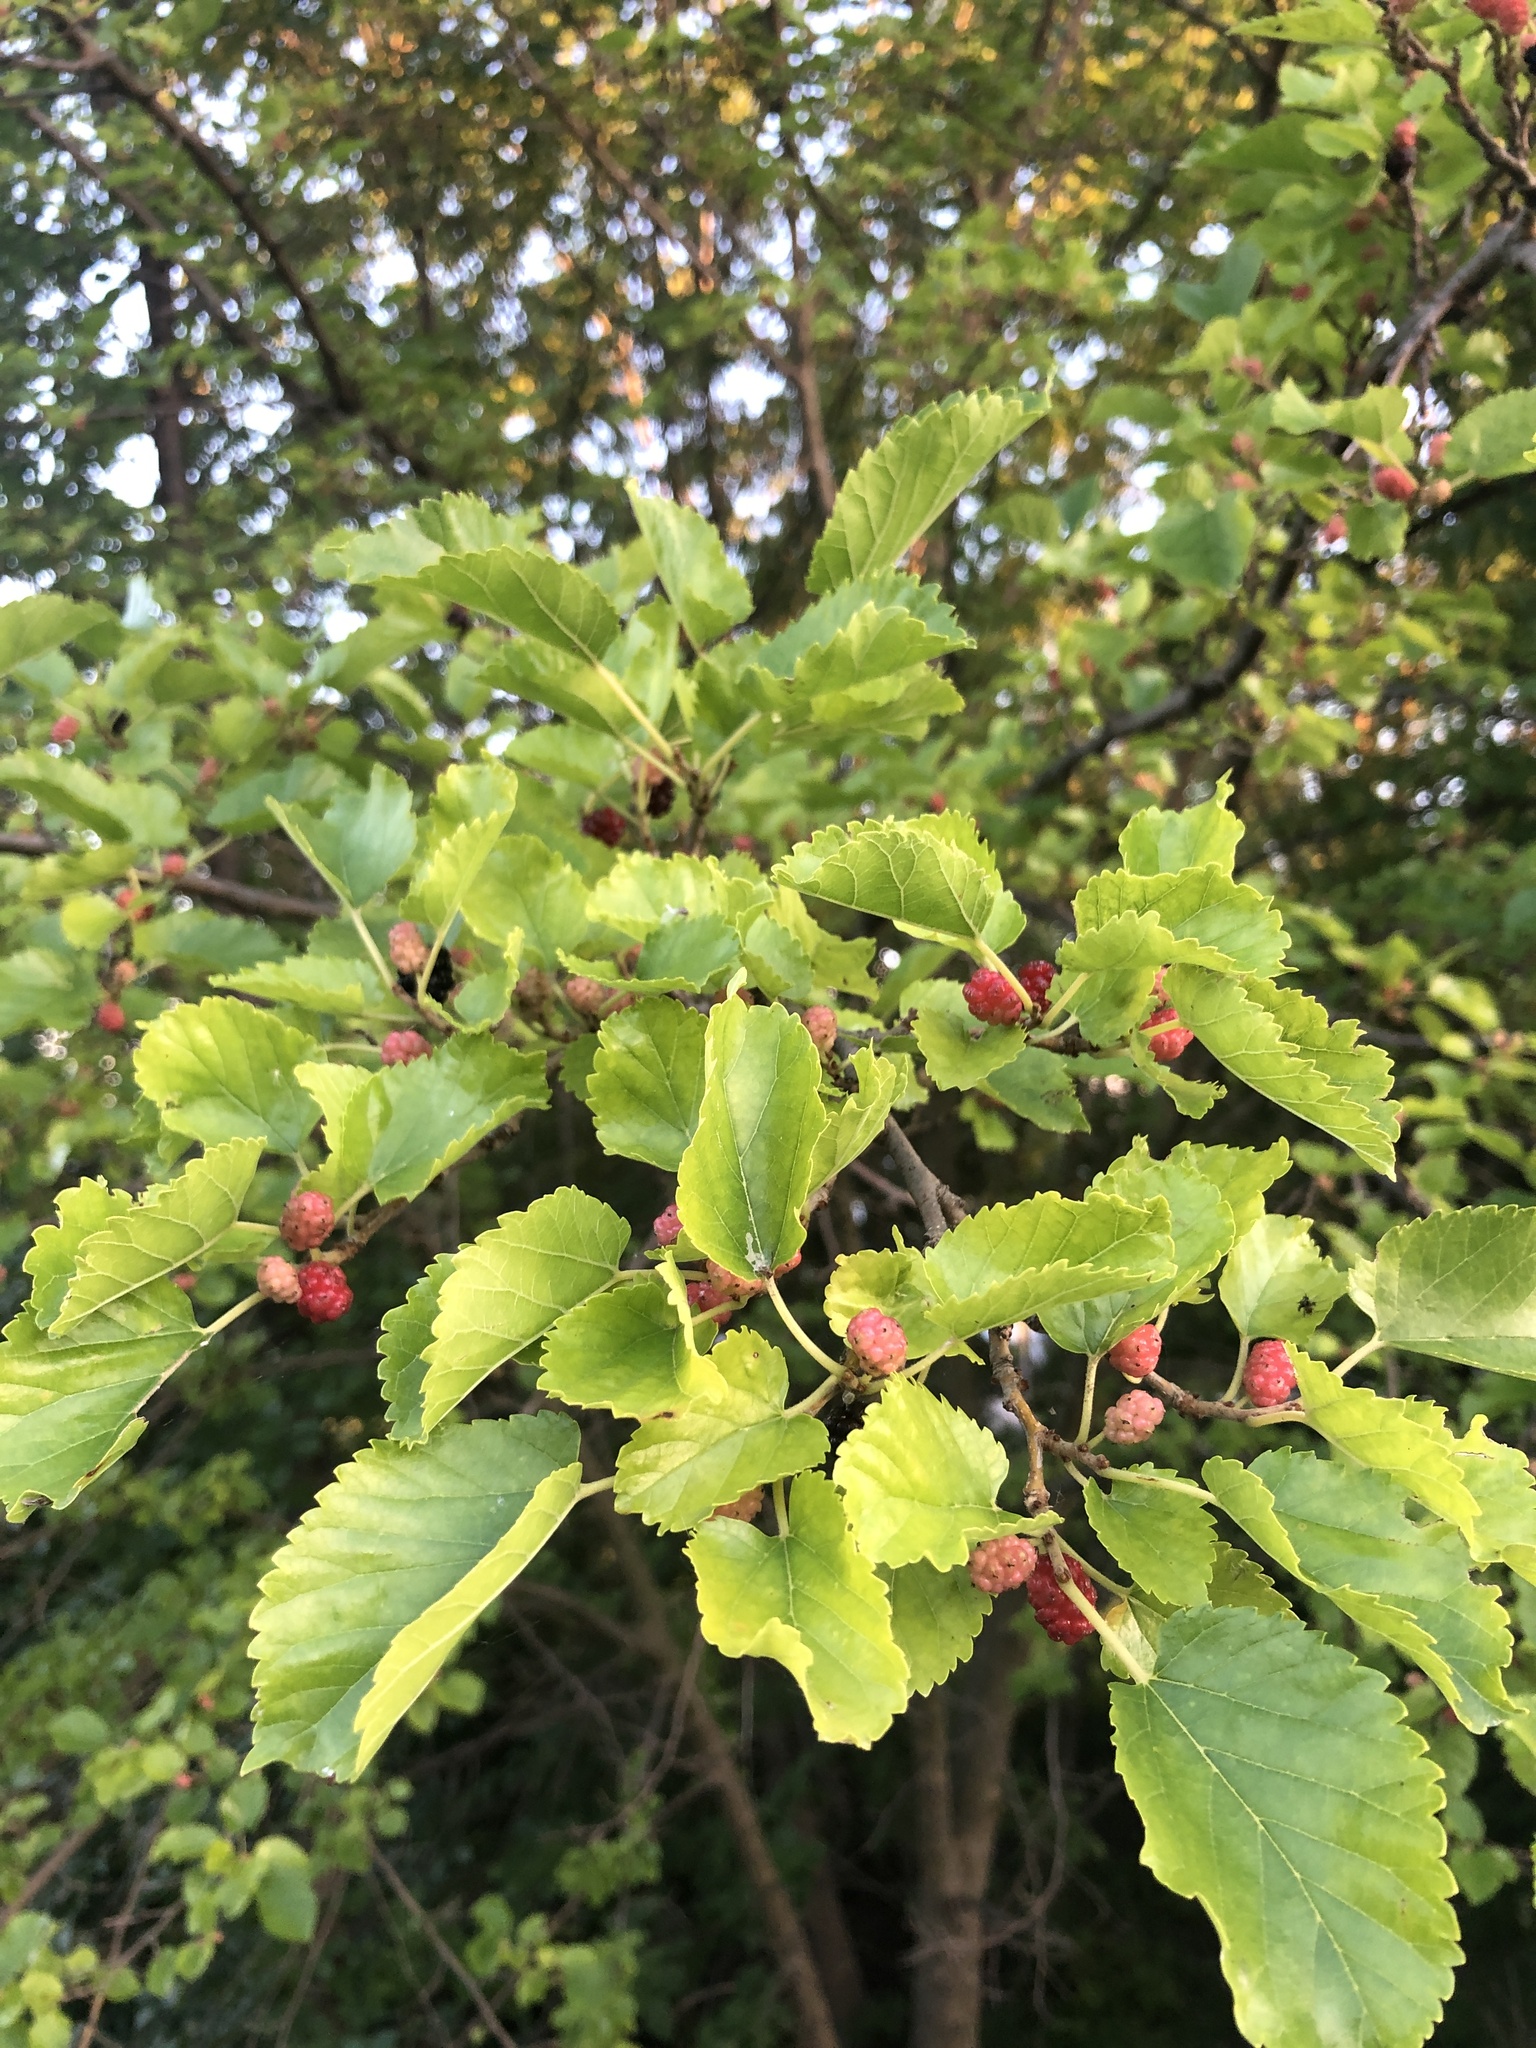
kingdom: Plantae
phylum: Tracheophyta
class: Magnoliopsida
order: Rosales
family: Moraceae
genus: Morus
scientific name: Morus alba
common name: White mulberry
